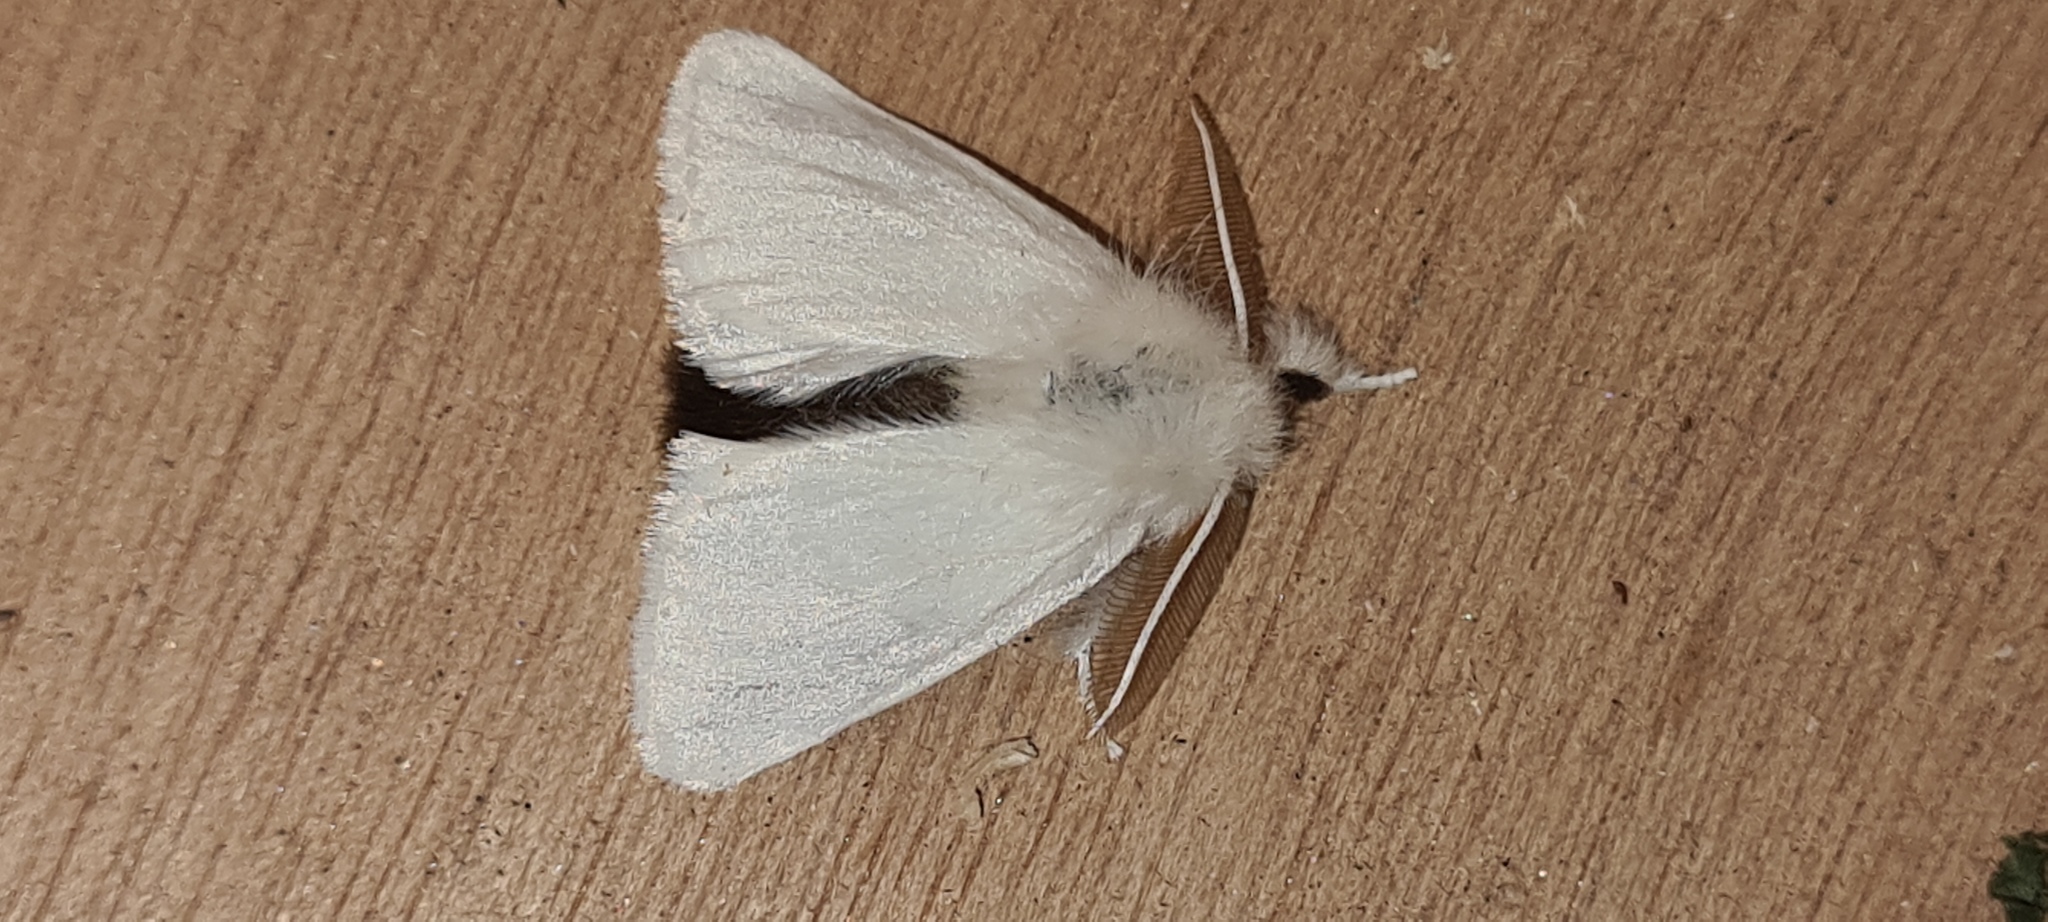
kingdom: Animalia
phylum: Arthropoda
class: Insecta
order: Lepidoptera
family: Erebidae
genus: Euproctis
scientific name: Euproctis chrysorrhoea
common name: Brown-tail
